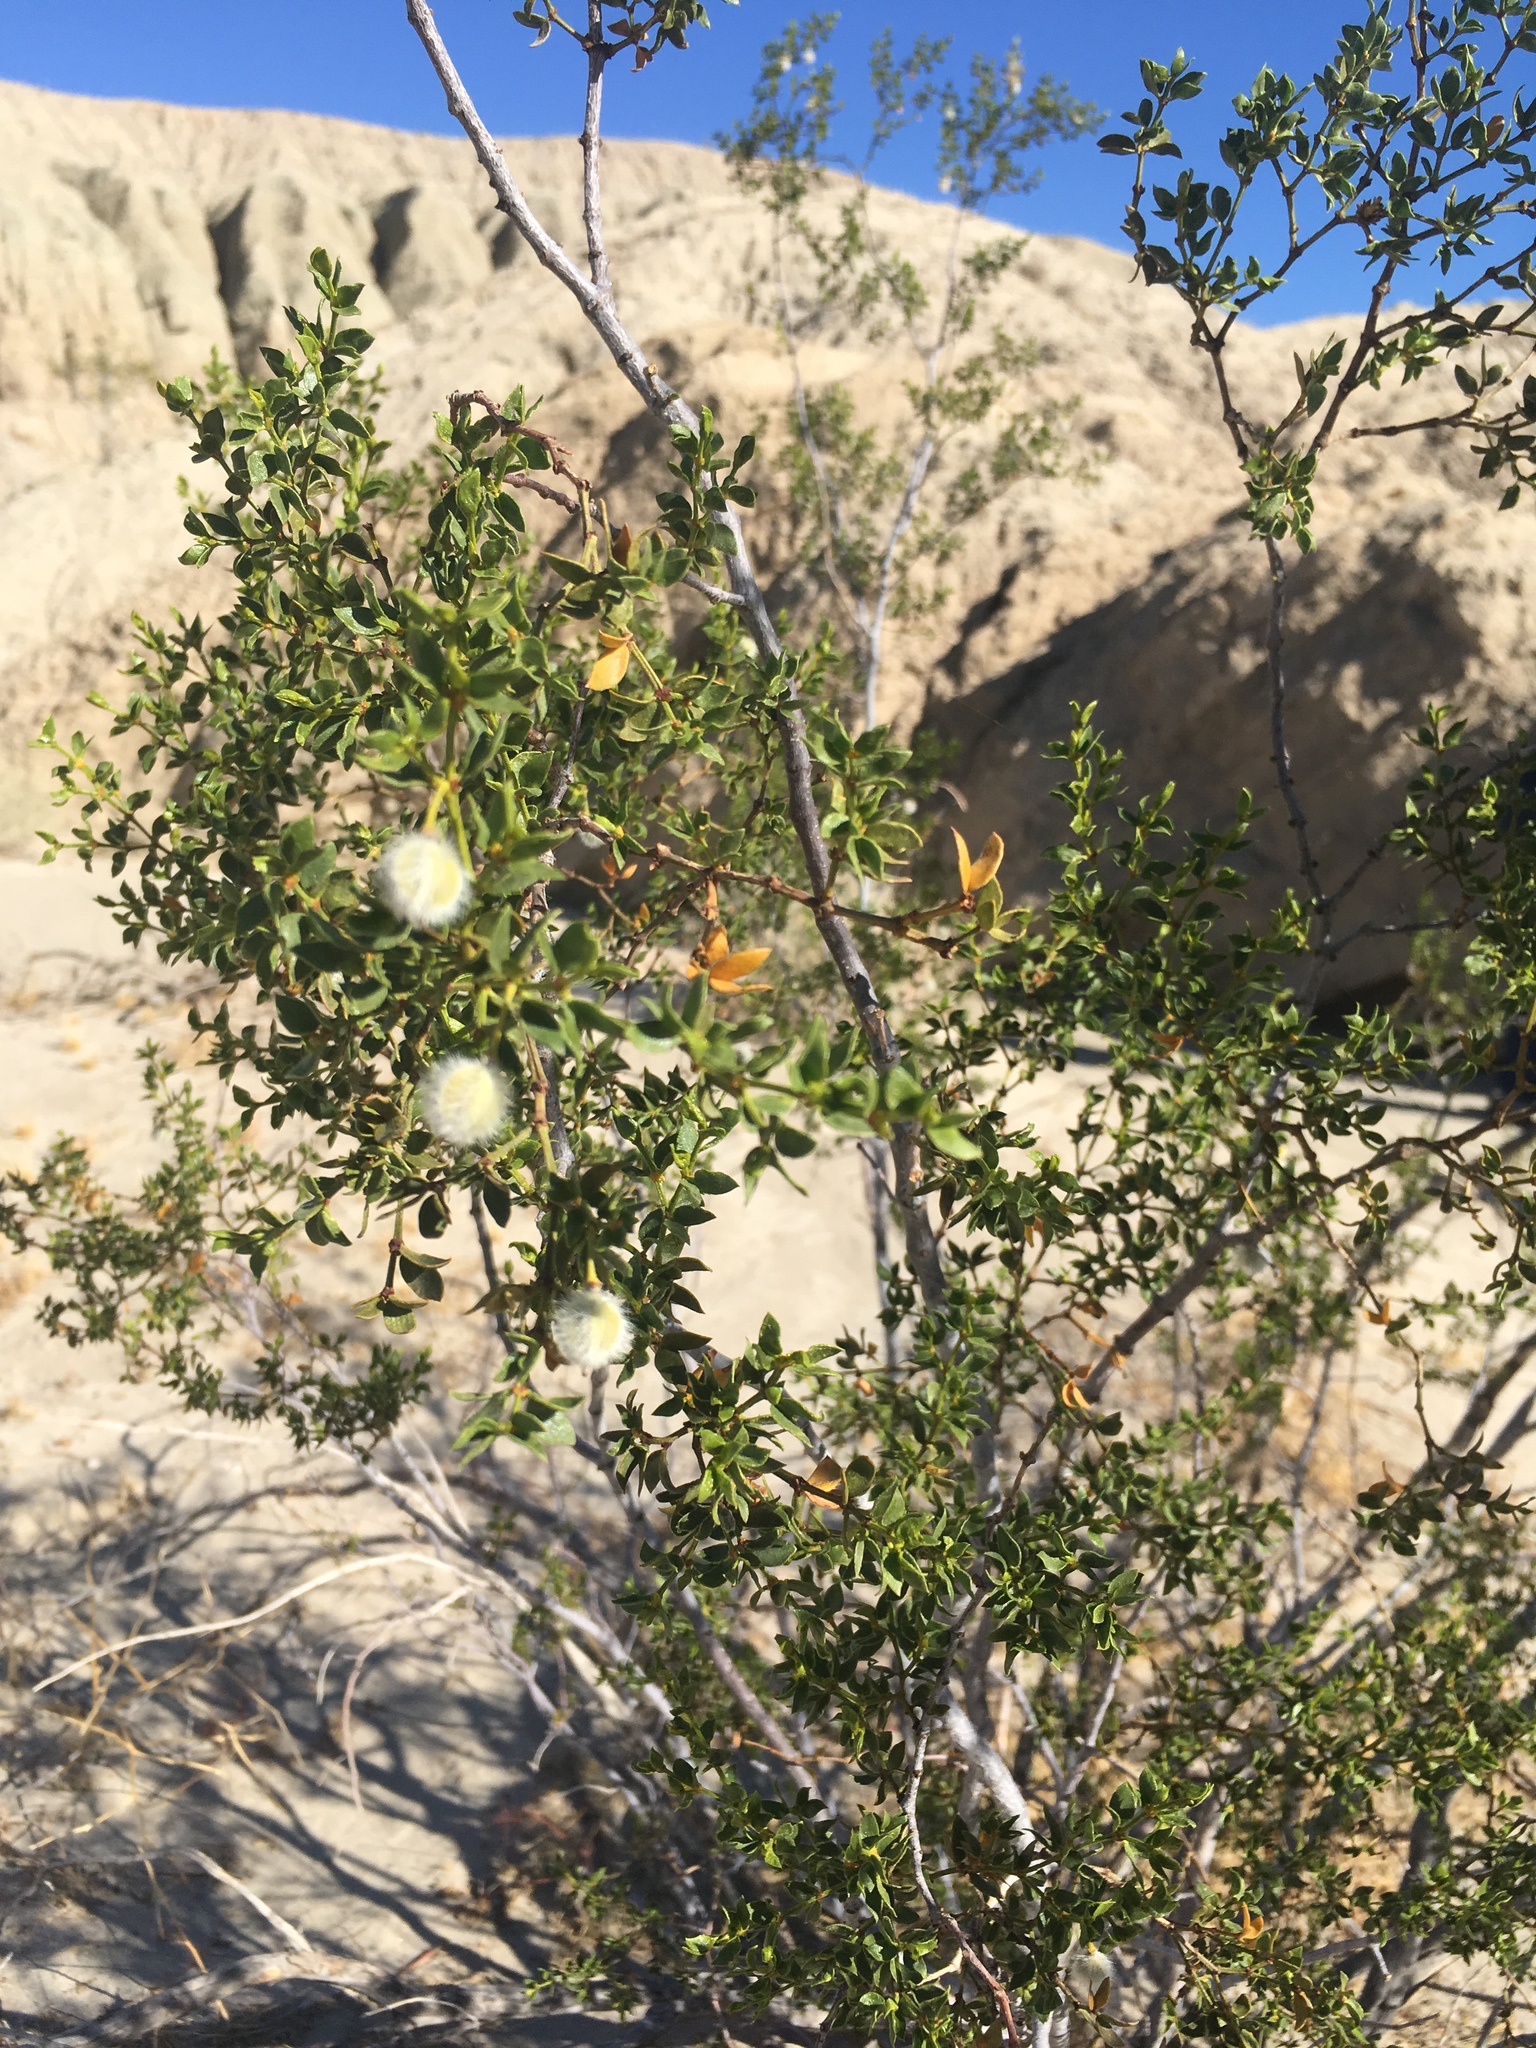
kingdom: Plantae
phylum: Tracheophyta
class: Magnoliopsida
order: Zygophyllales
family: Zygophyllaceae
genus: Larrea
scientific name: Larrea tridentata
